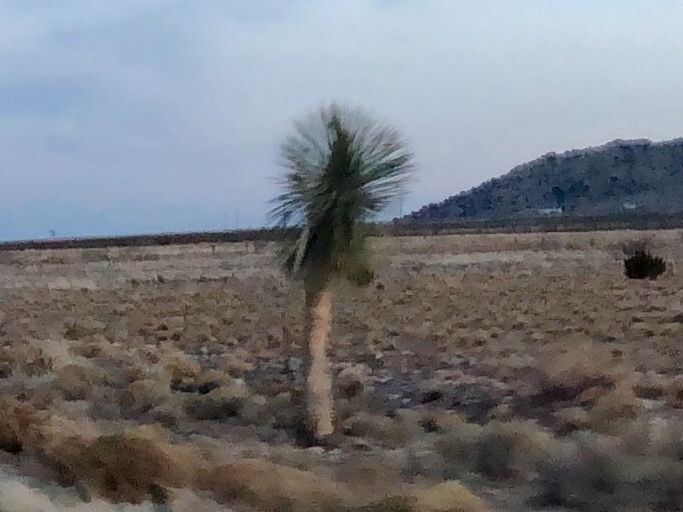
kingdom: Plantae
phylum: Tracheophyta
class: Liliopsida
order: Asparagales
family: Asparagaceae
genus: Yucca
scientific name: Yucca elata
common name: Palmella
